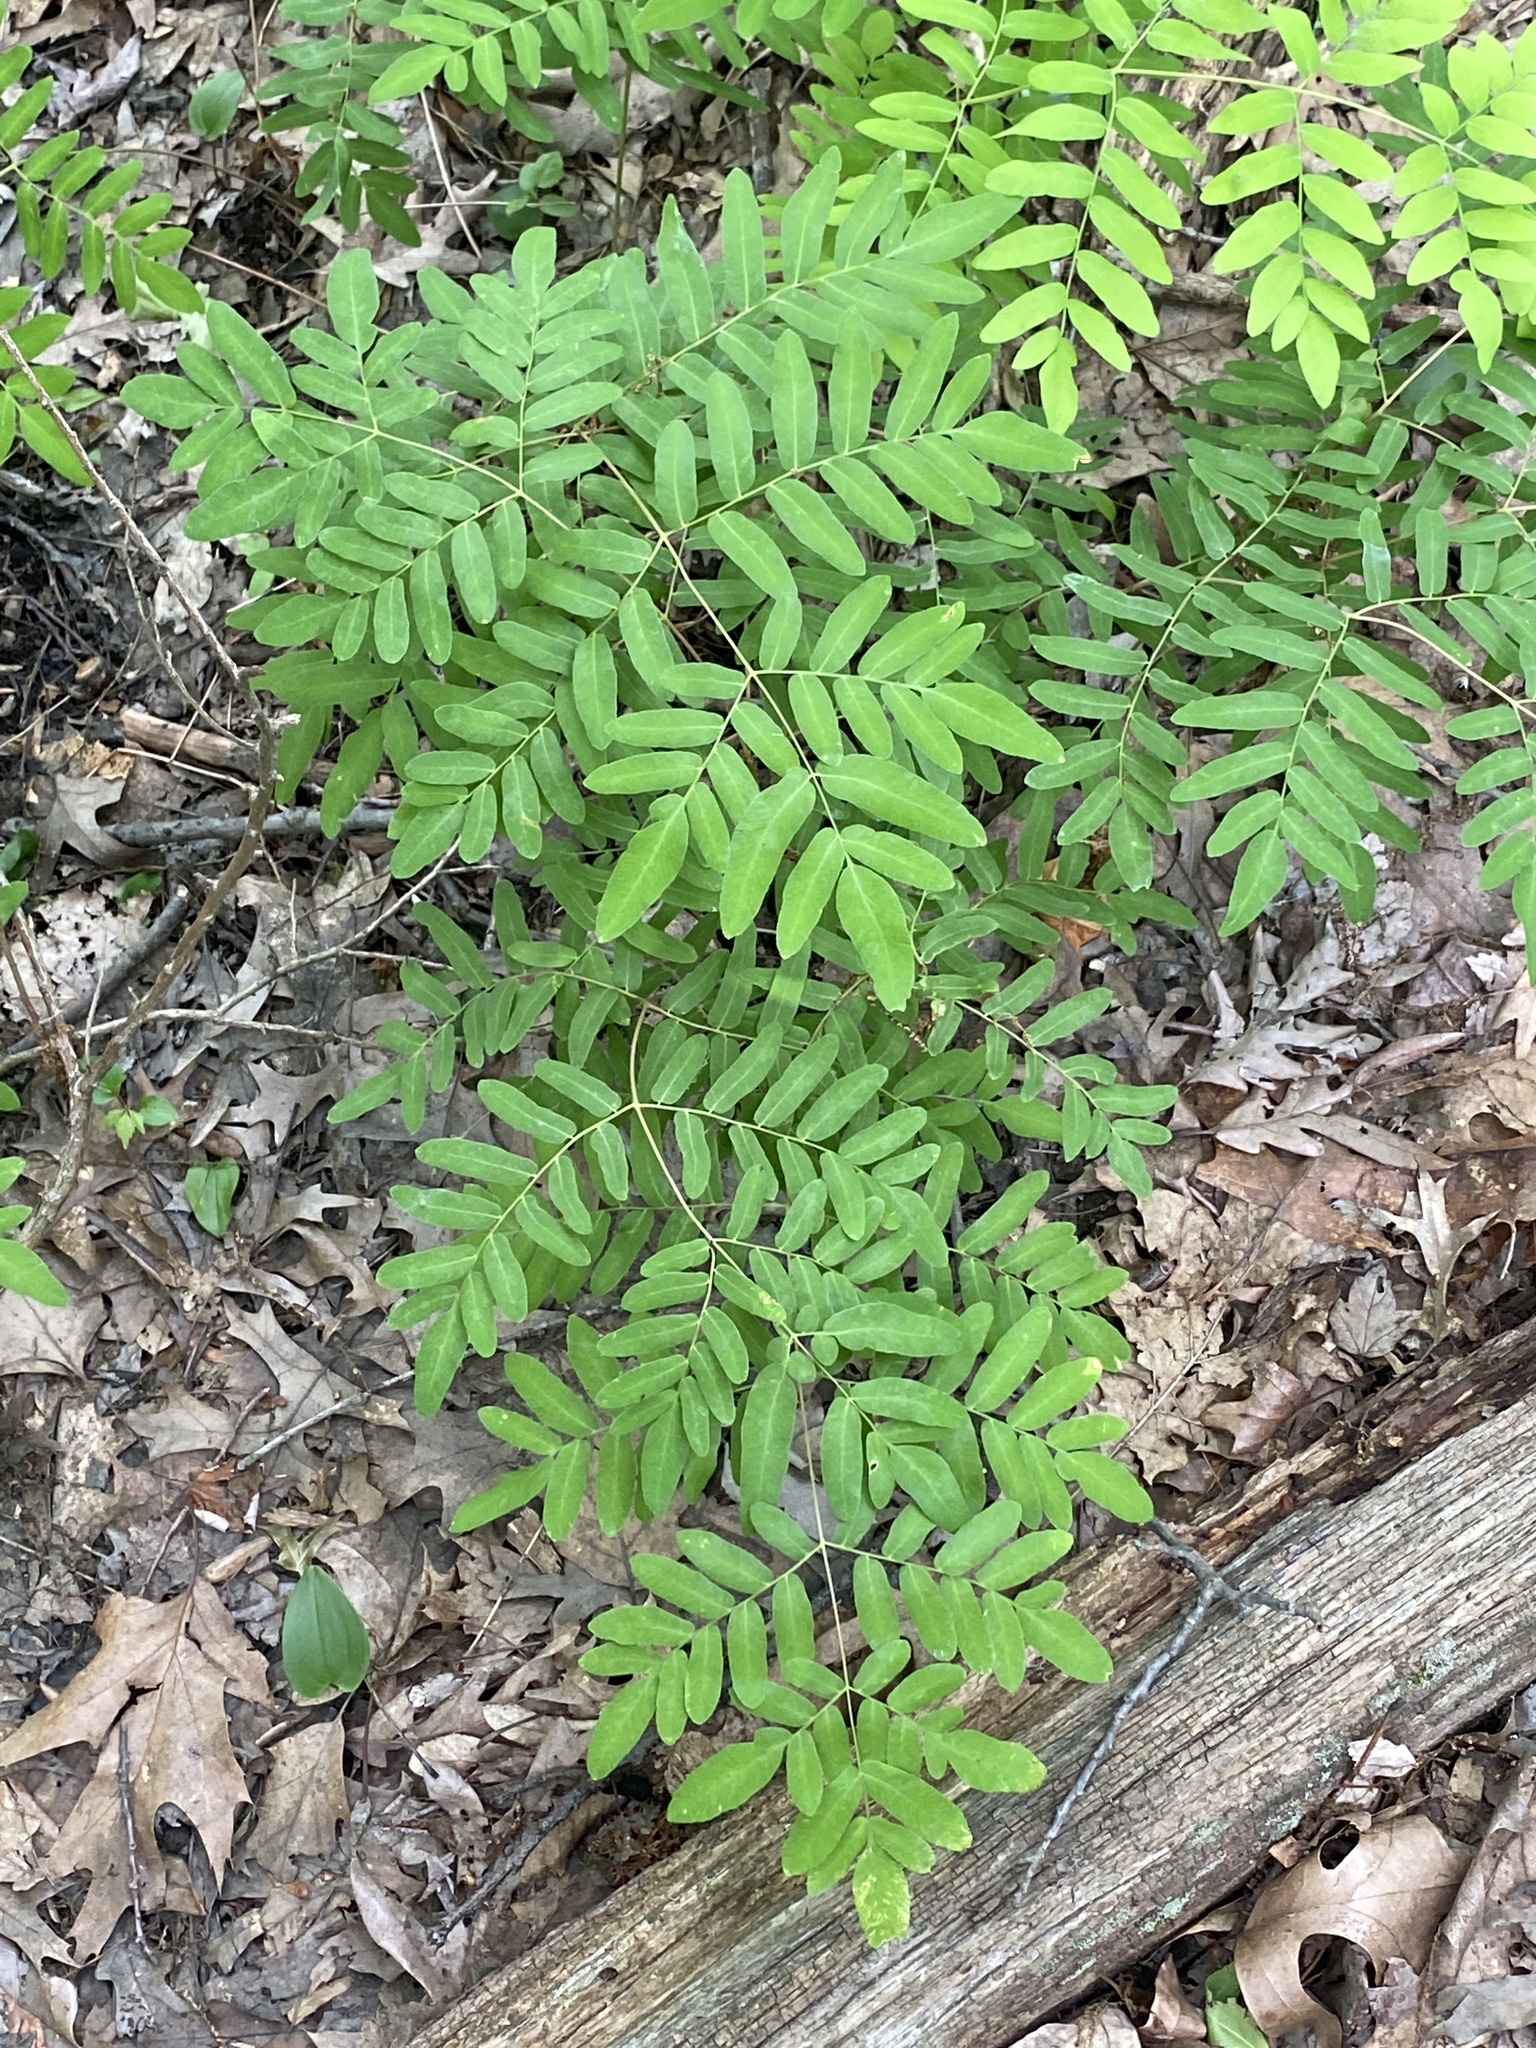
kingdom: Plantae
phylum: Tracheophyta
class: Polypodiopsida
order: Osmundales
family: Osmundaceae
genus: Osmunda
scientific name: Osmunda spectabilis
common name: American royal fern
